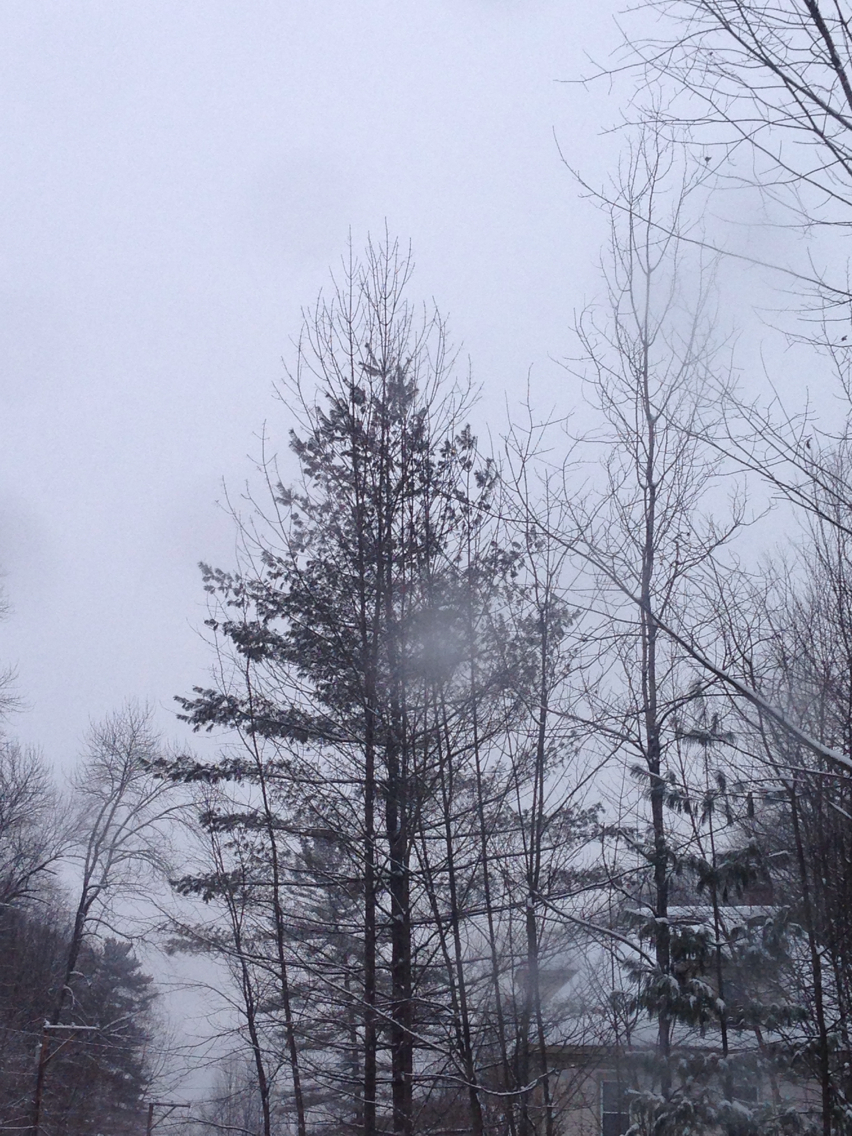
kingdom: Plantae
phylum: Tracheophyta
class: Pinopsida
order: Pinales
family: Pinaceae
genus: Pinus
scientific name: Pinus strobus
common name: Weymouth pine
